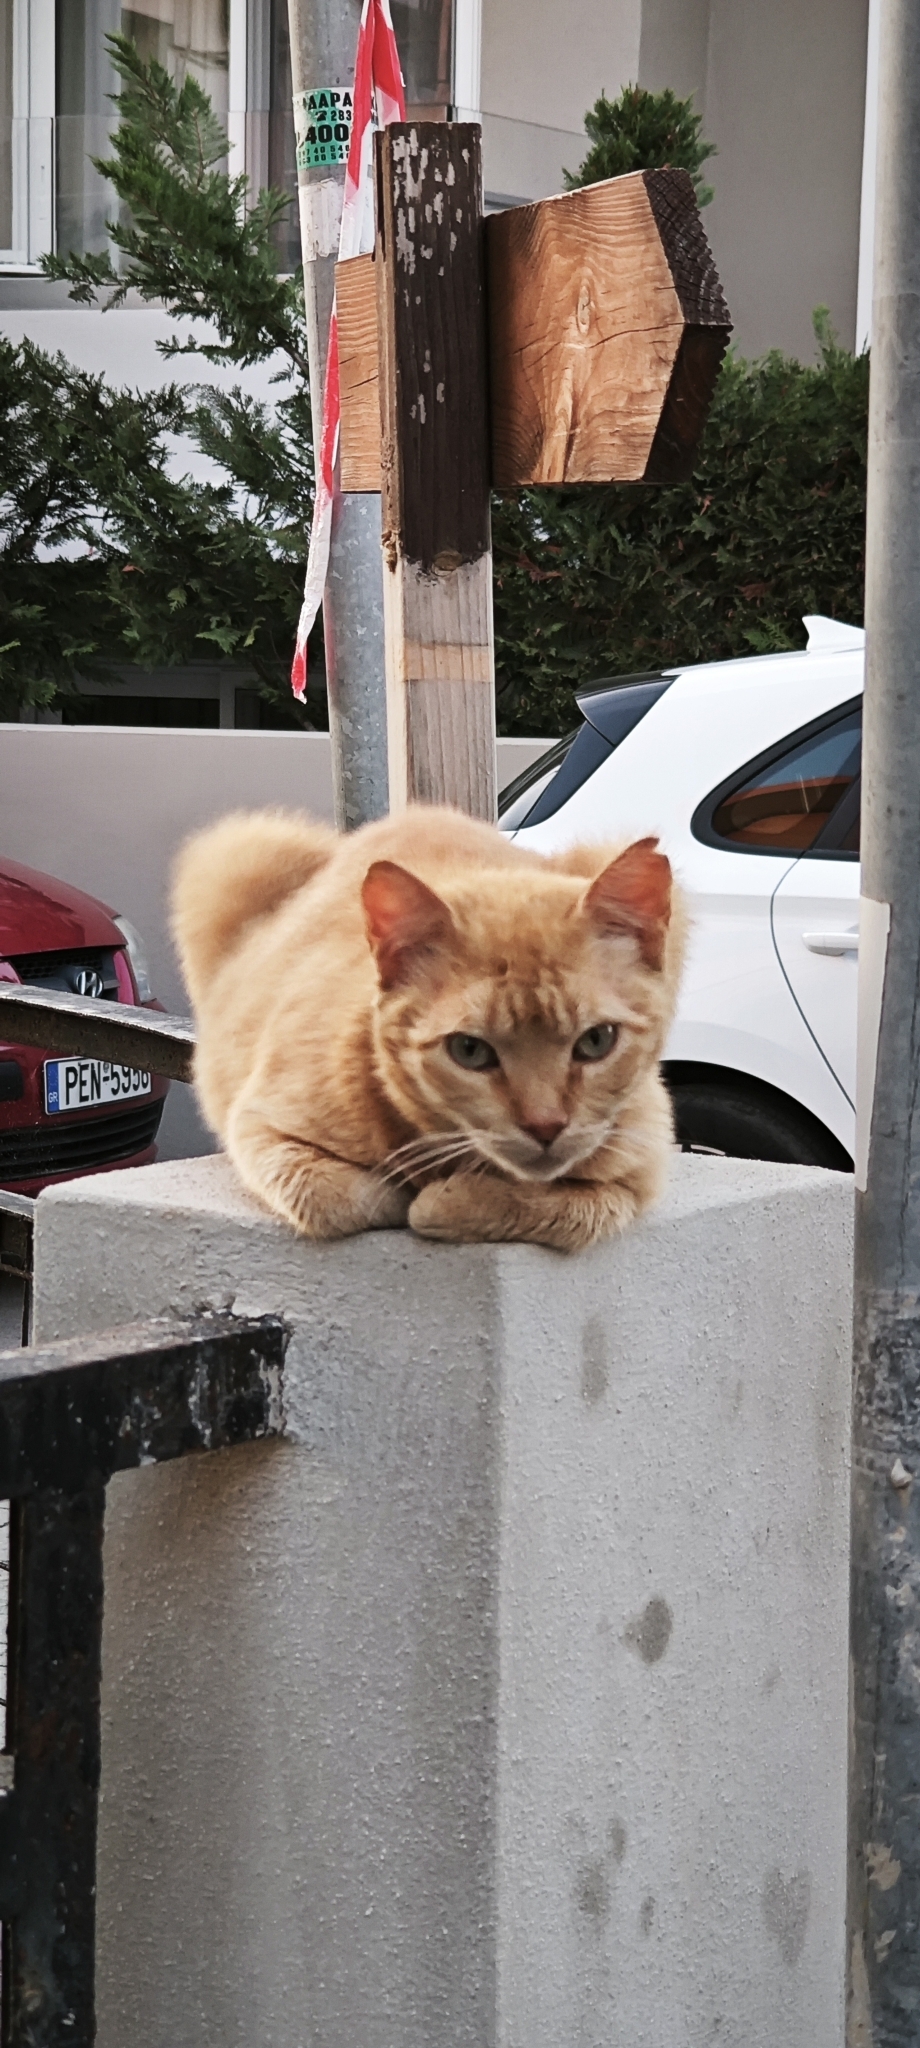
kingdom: Animalia
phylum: Chordata
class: Mammalia
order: Carnivora
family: Felidae
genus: Felis
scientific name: Felis catus
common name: Domestic cat
